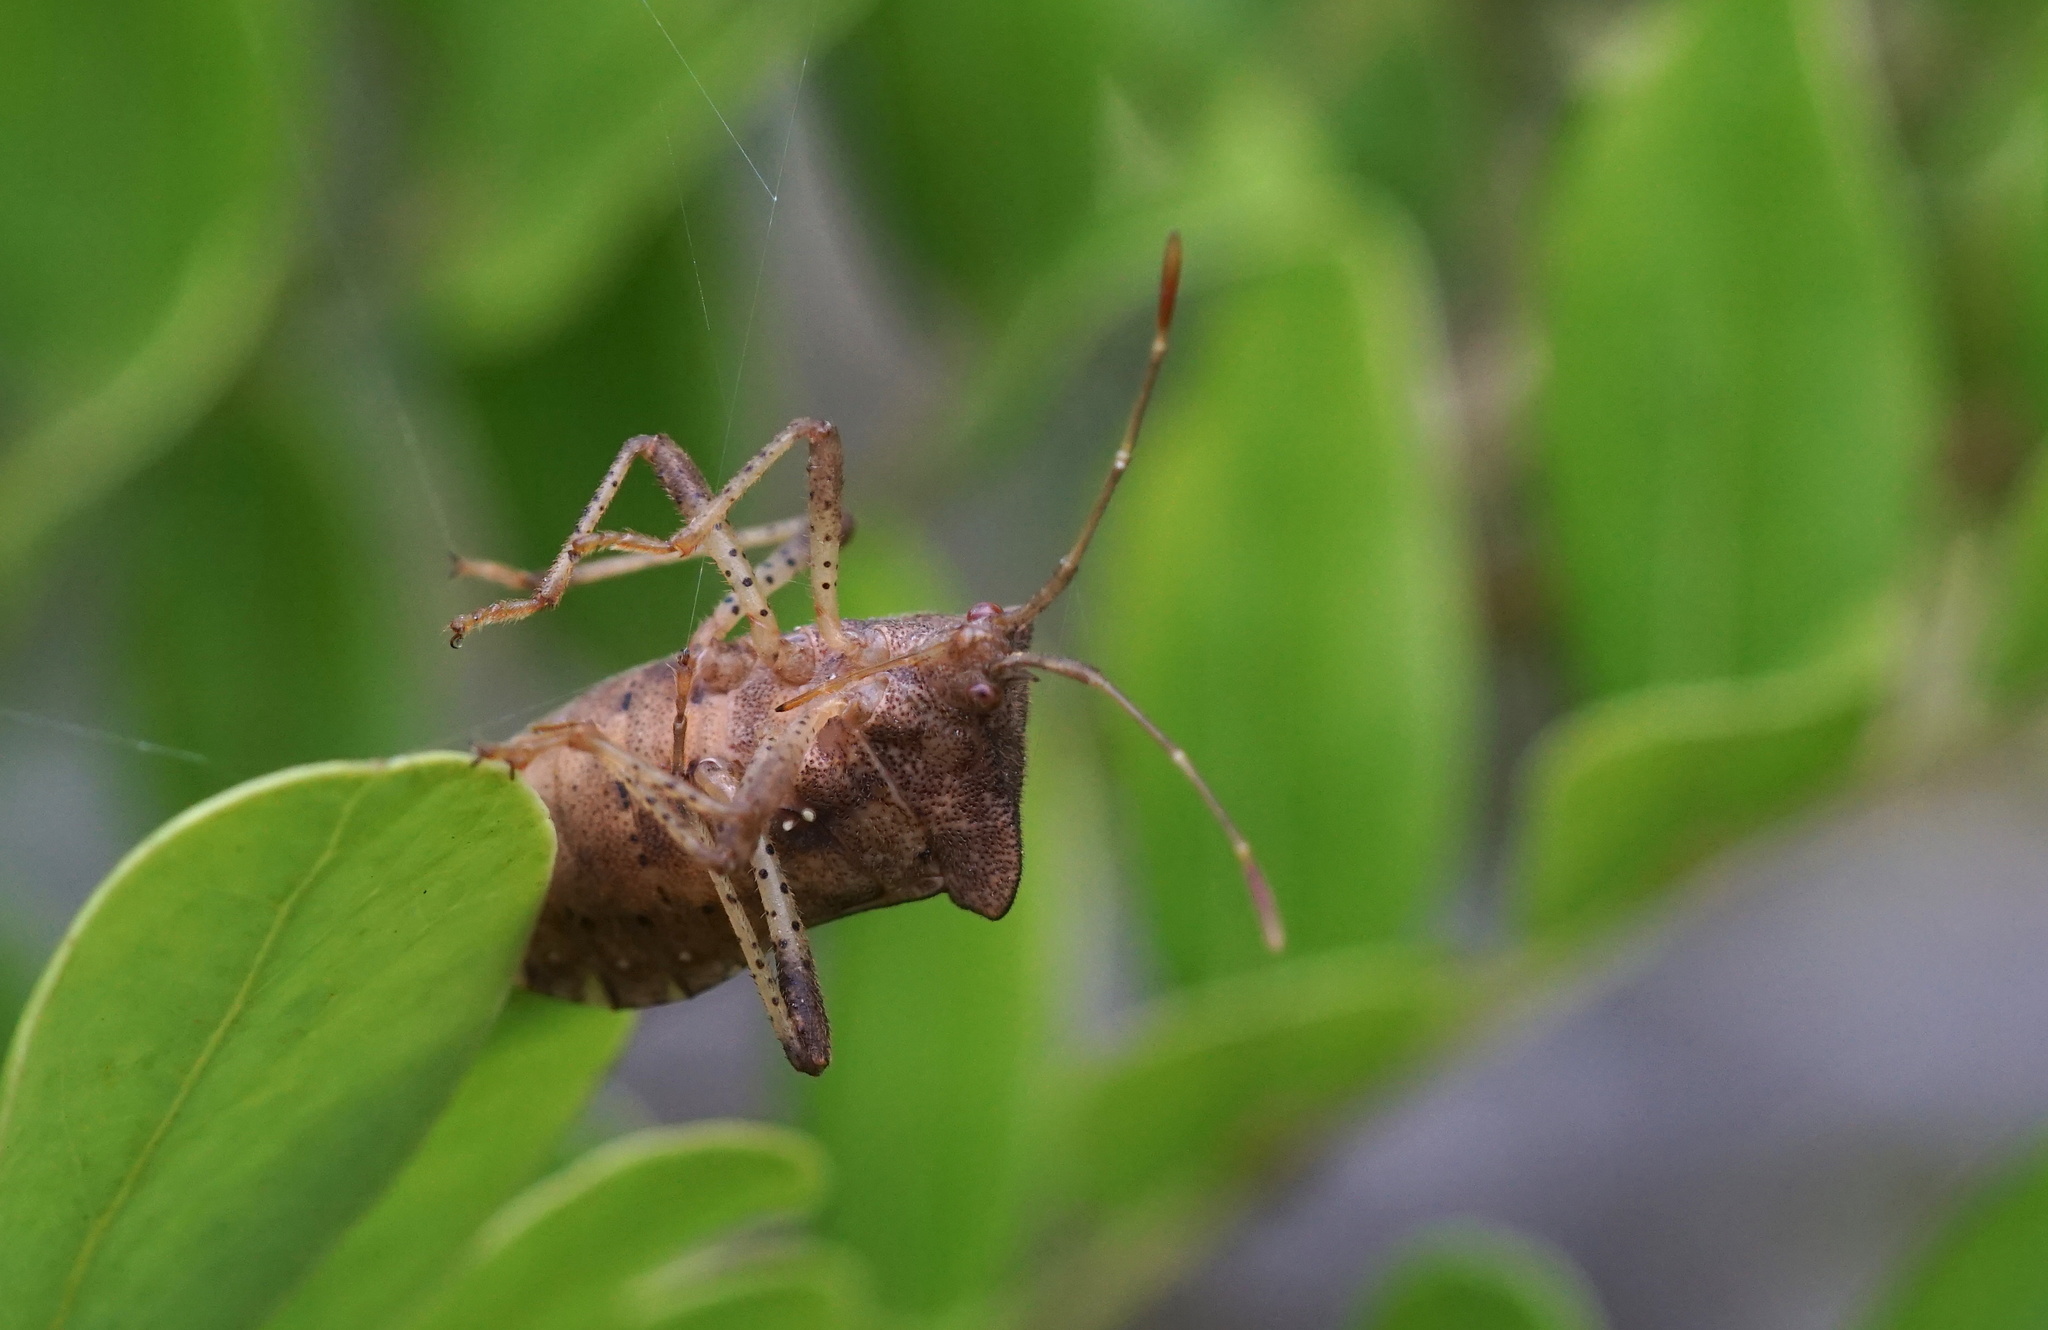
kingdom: Animalia
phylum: Arthropoda
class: Insecta
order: Hemiptera
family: Coreidae
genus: Anasa
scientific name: Anasa scorbutica
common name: Squash bug
